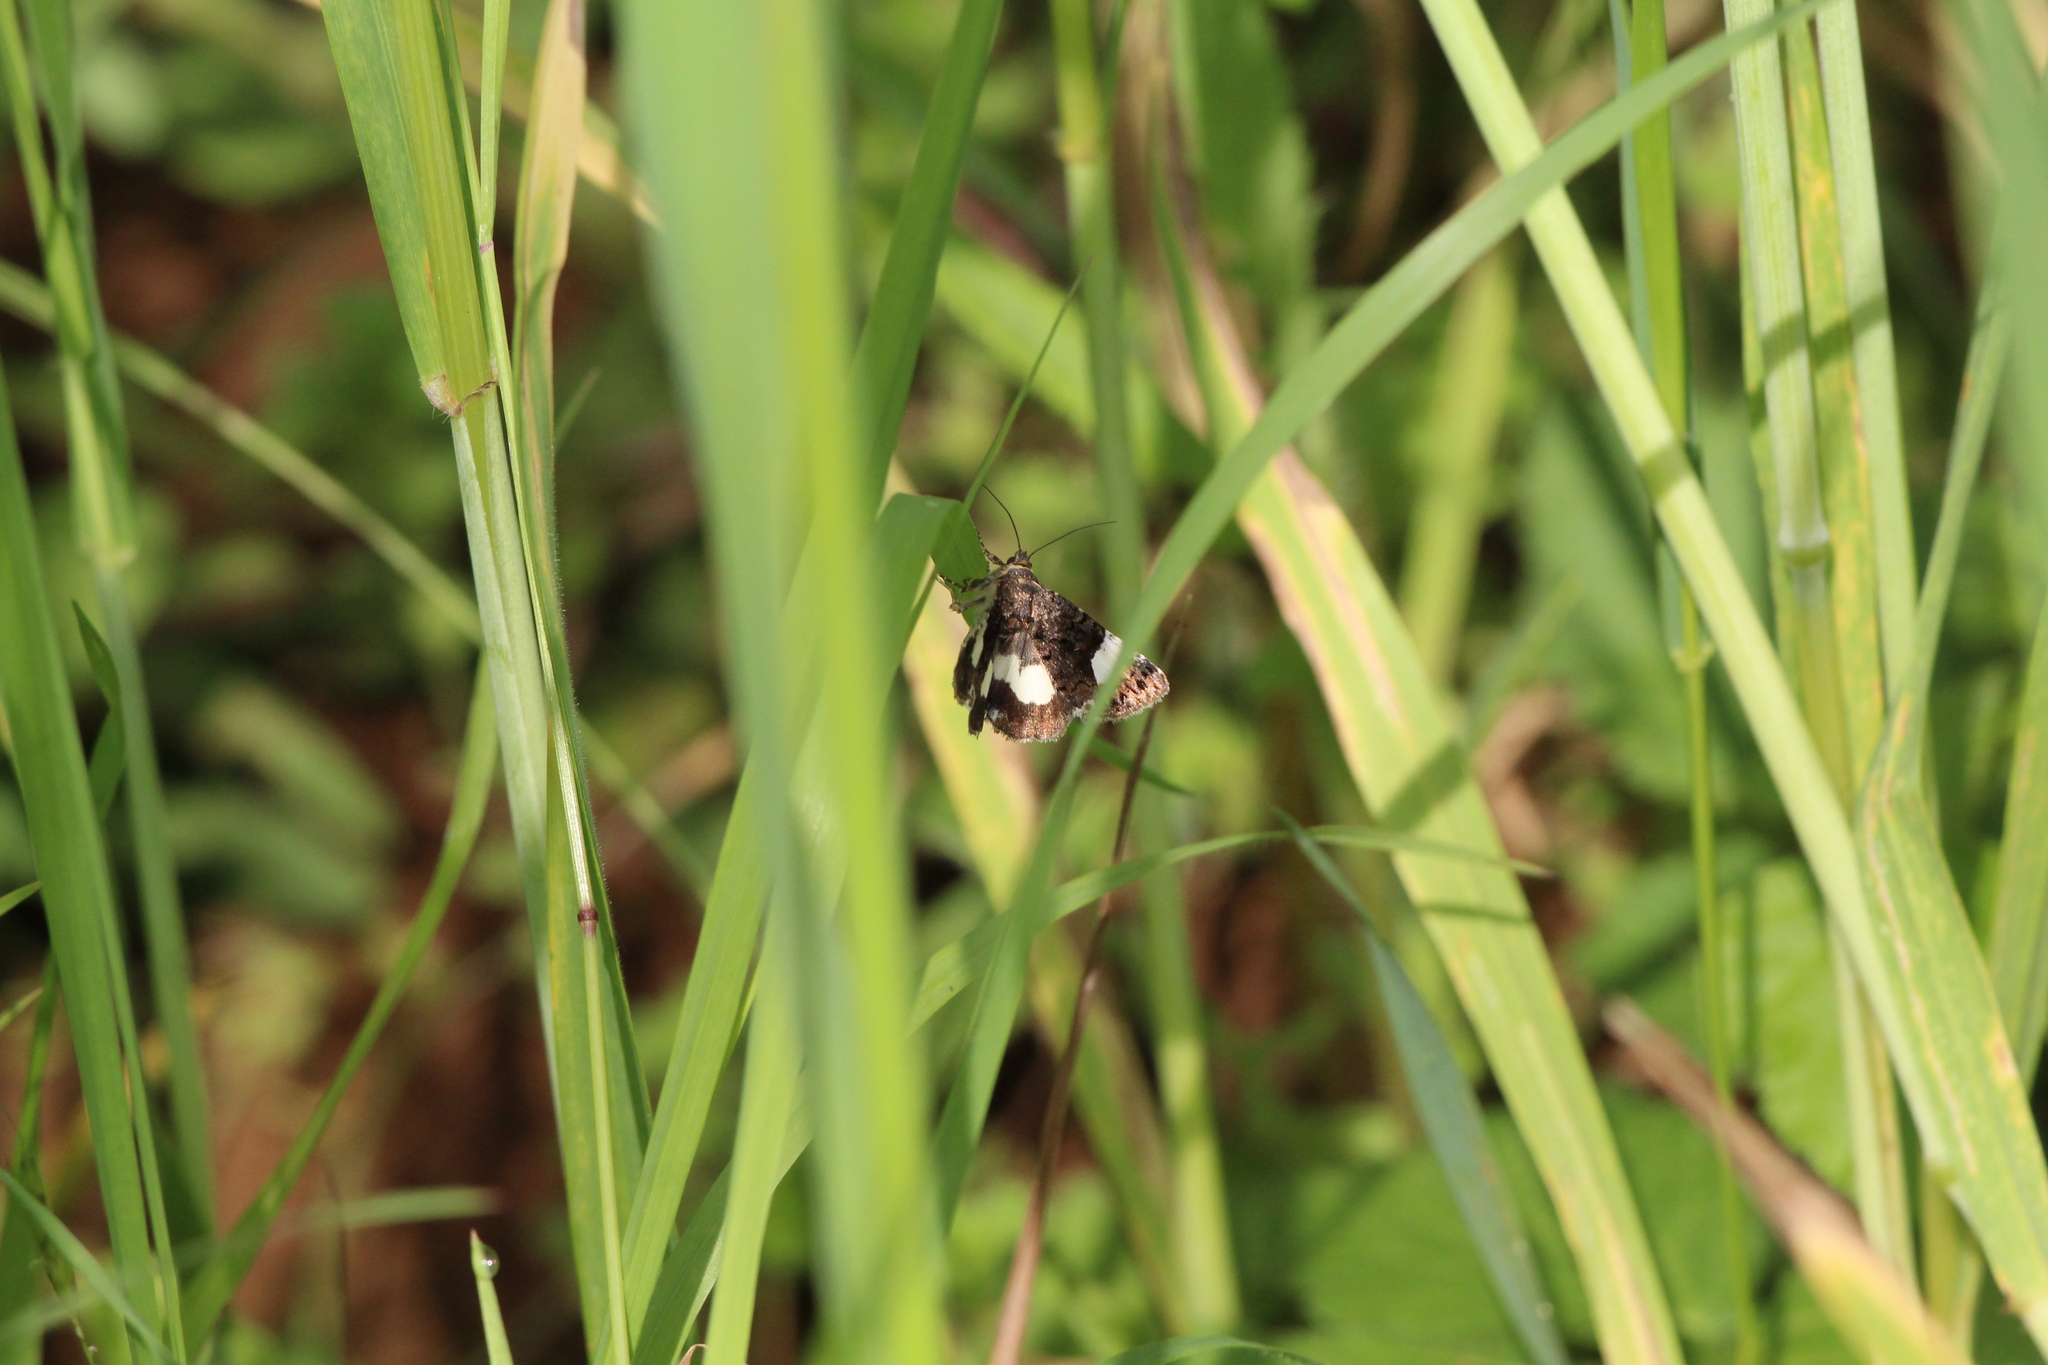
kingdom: Animalia
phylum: Arthropoda
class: Insecta
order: Lepidoptera
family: Erebidae
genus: Tyta
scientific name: Tyta luctuosa
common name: Four-spotted
